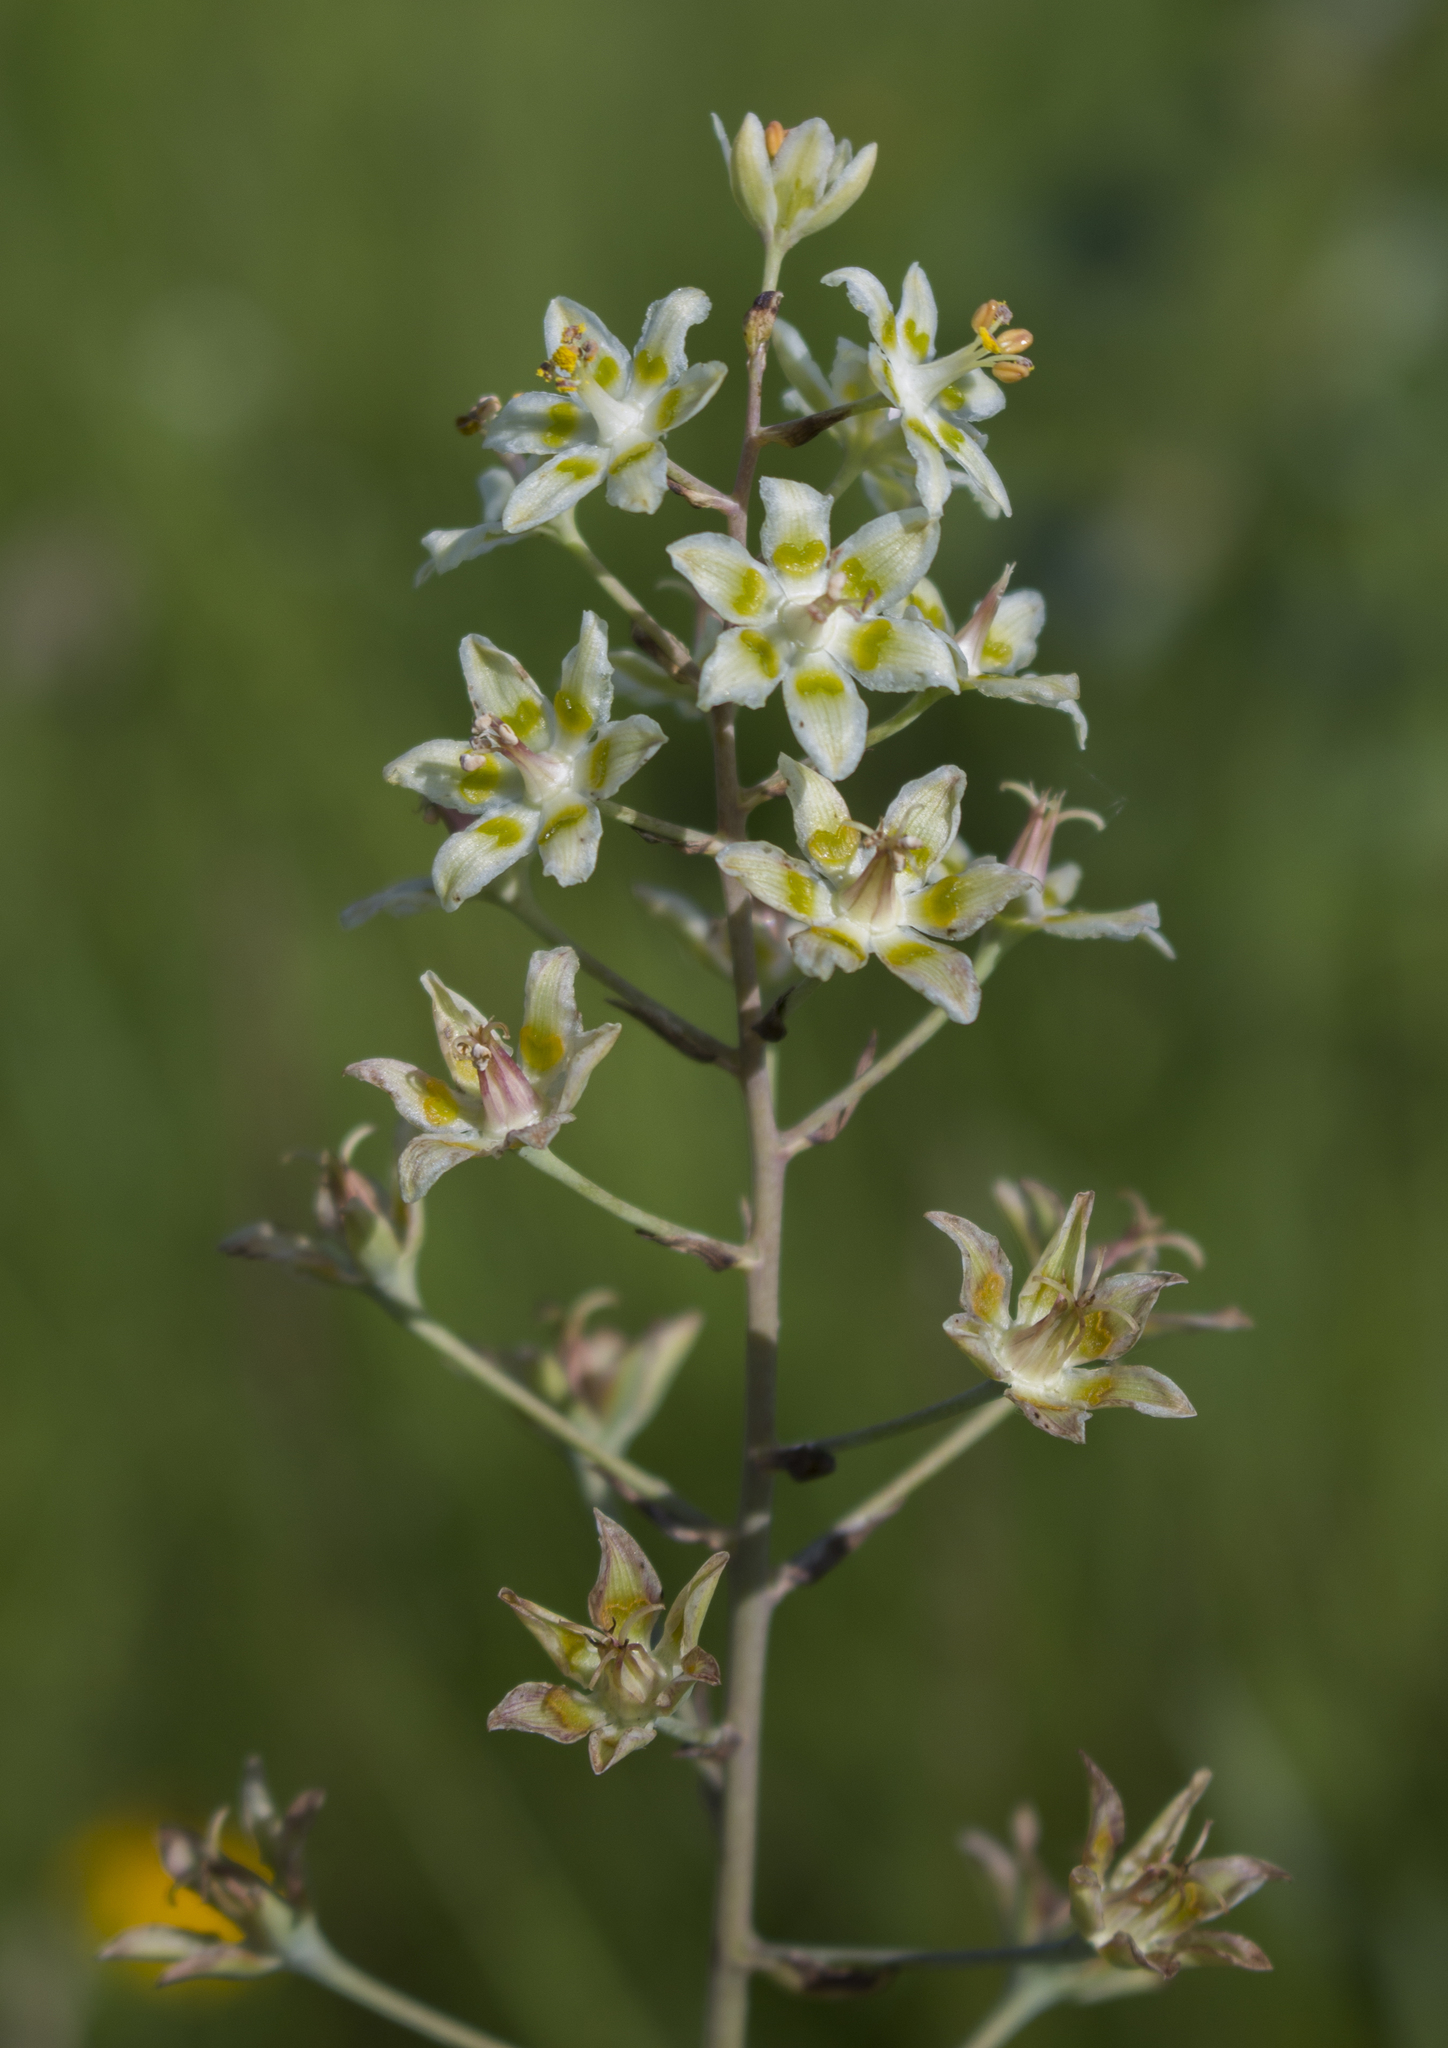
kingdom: Plantae
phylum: Tracheophyta
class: Liliopsida
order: Liliales
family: Melanthiaceae
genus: Anticlea
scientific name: Anticlea elegans
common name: Mountain death camas
